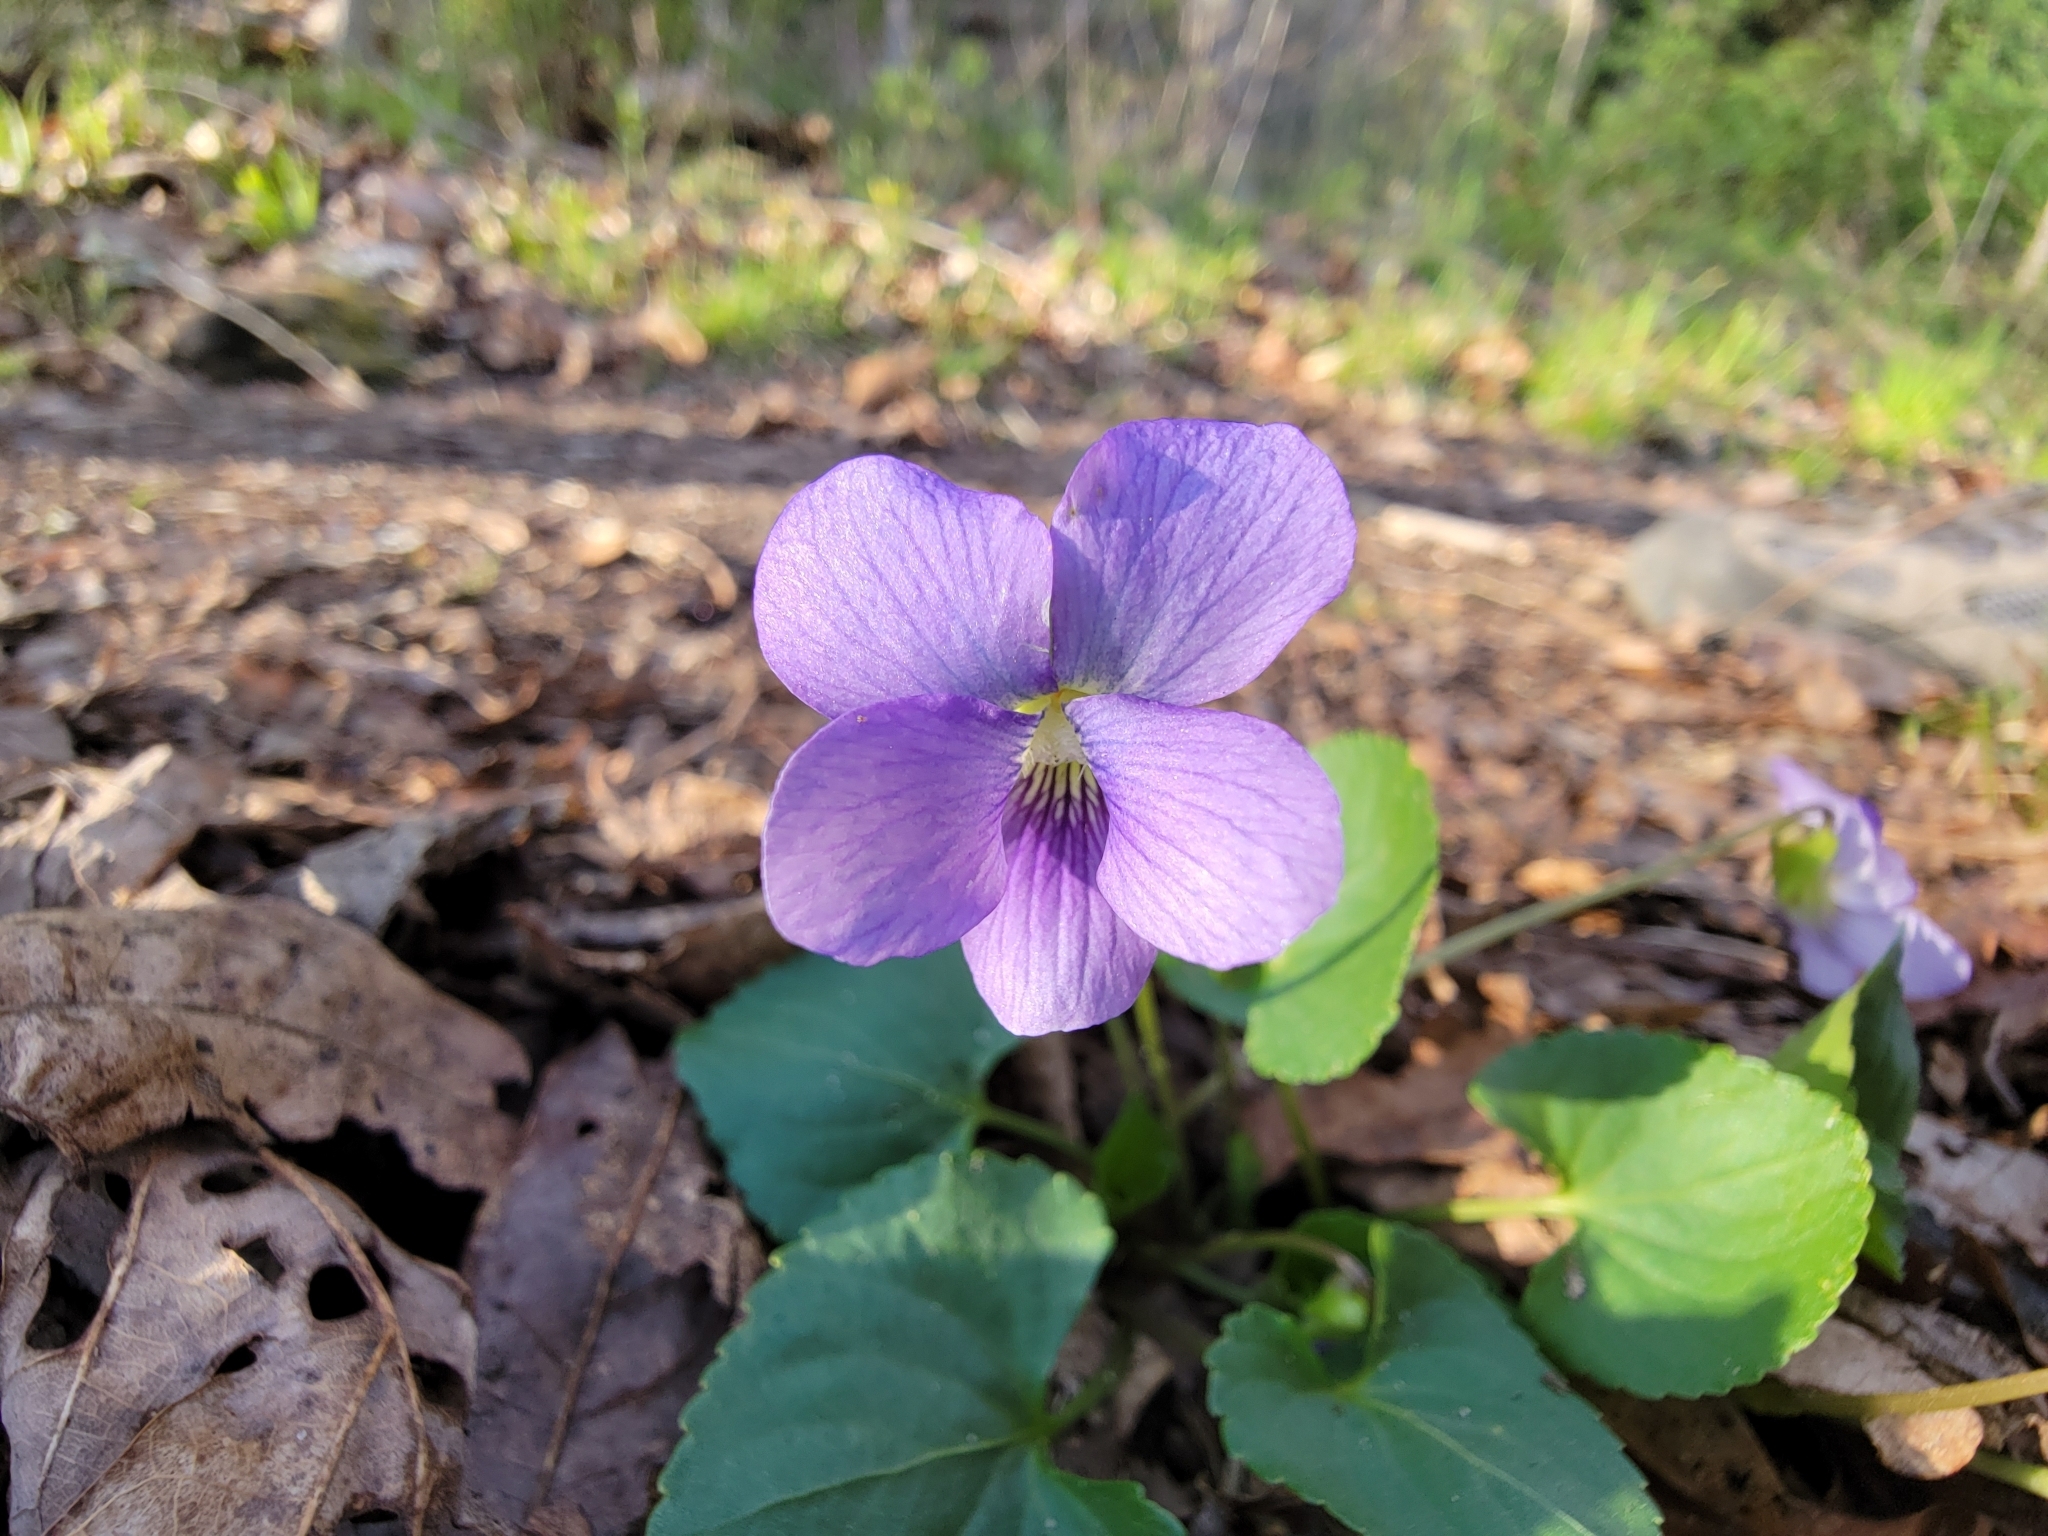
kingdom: Plantae
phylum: Tracheophyta
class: Magnoliopsida
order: Malpighiales
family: Violaceae
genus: Viola
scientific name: Viola sororia
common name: Dooryard violet
